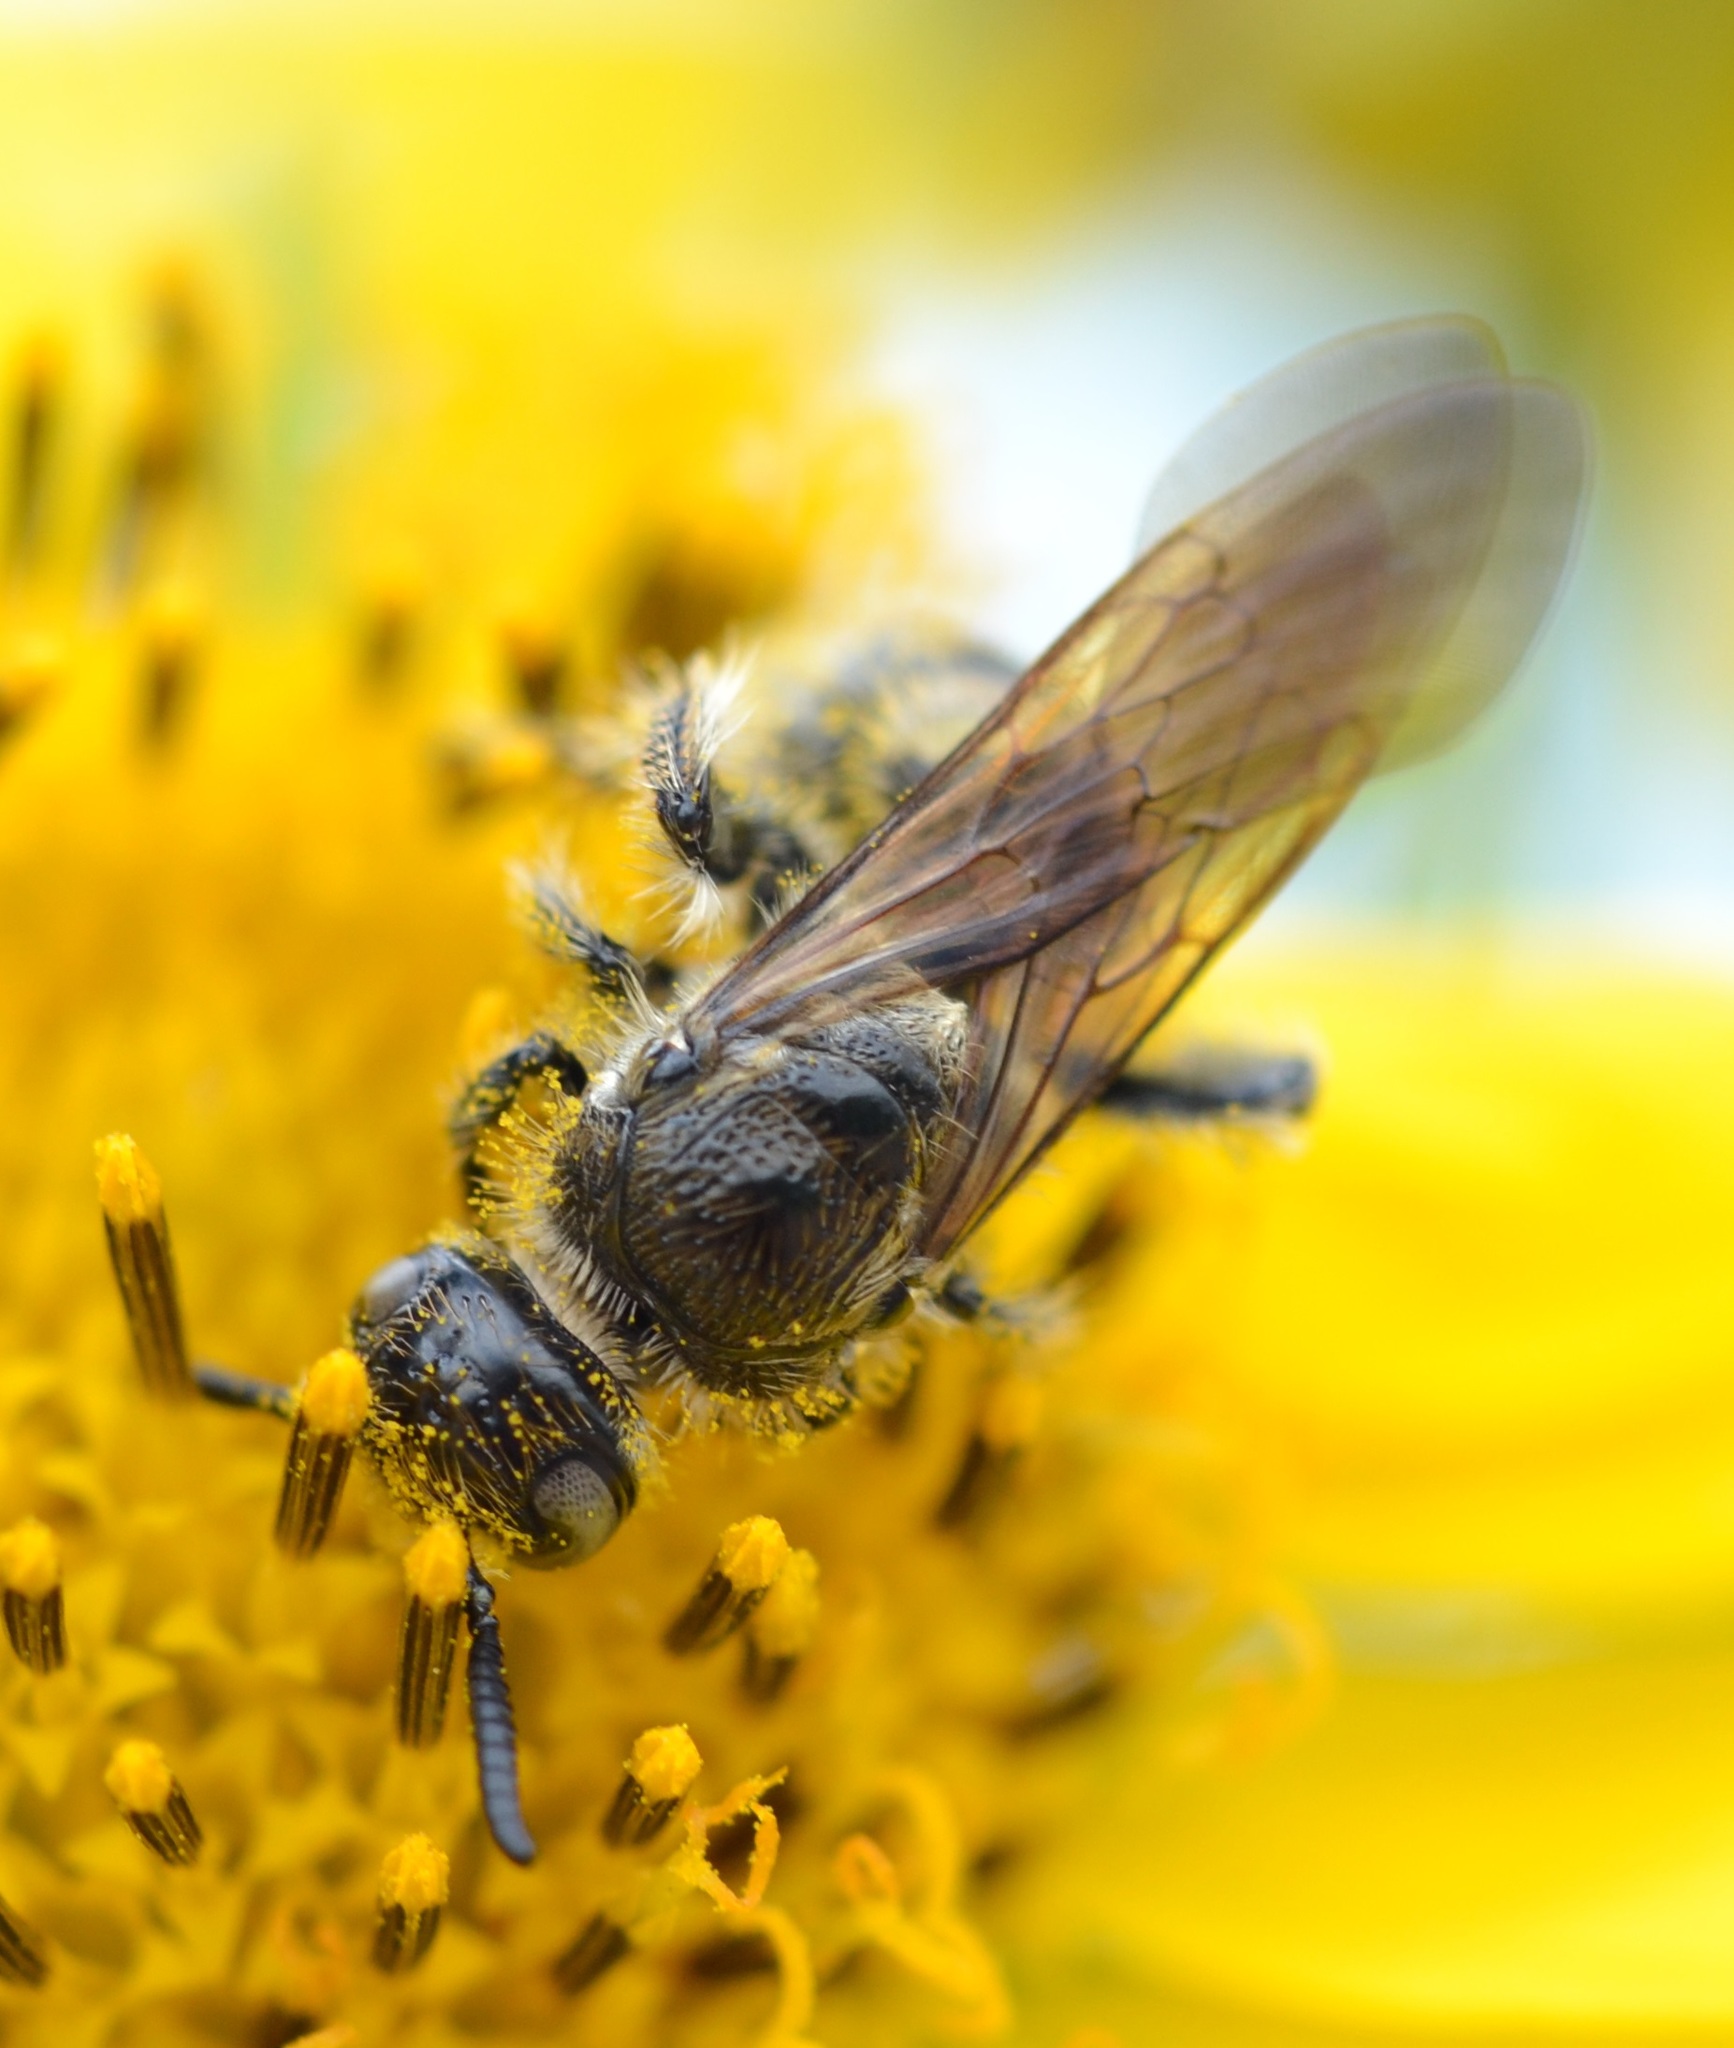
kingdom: Animalia
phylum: Arthropoda
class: Insecta
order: Hymenoptera
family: Scoliidae
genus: Micromeriella
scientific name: Micromeriella marginella
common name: Wasp
